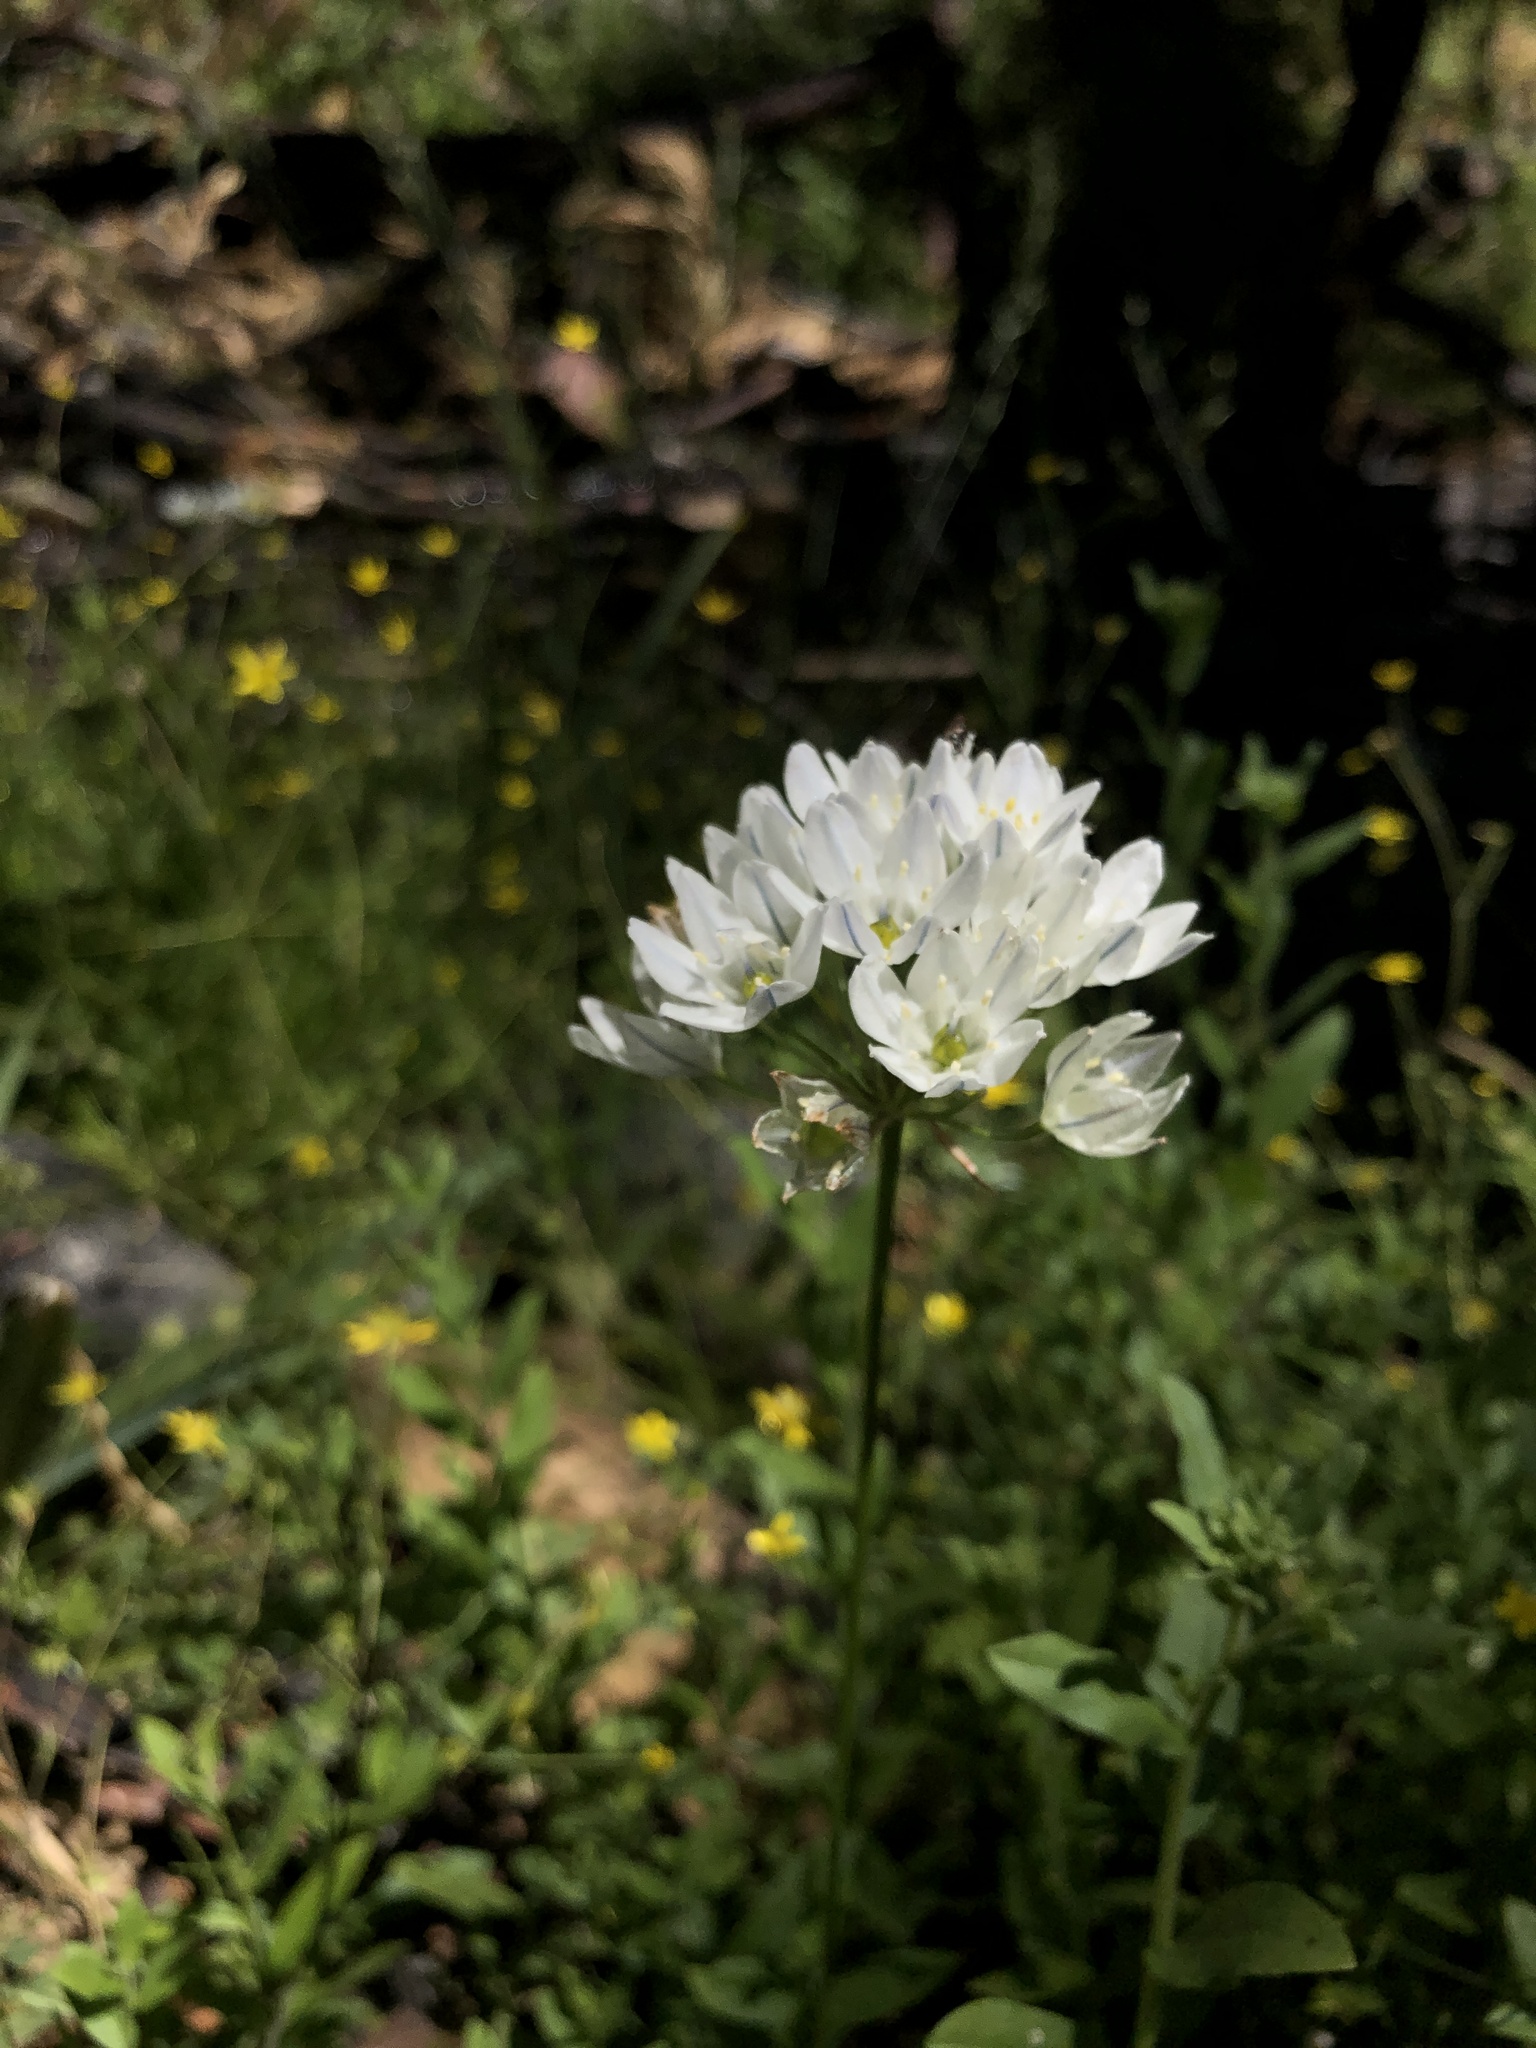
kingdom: Plantae
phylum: Tracheophyta
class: Liliopsida
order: Asparagales
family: Asparagaceae
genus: Triteleia
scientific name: Triteleia hyacinthina
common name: White brodiaea
